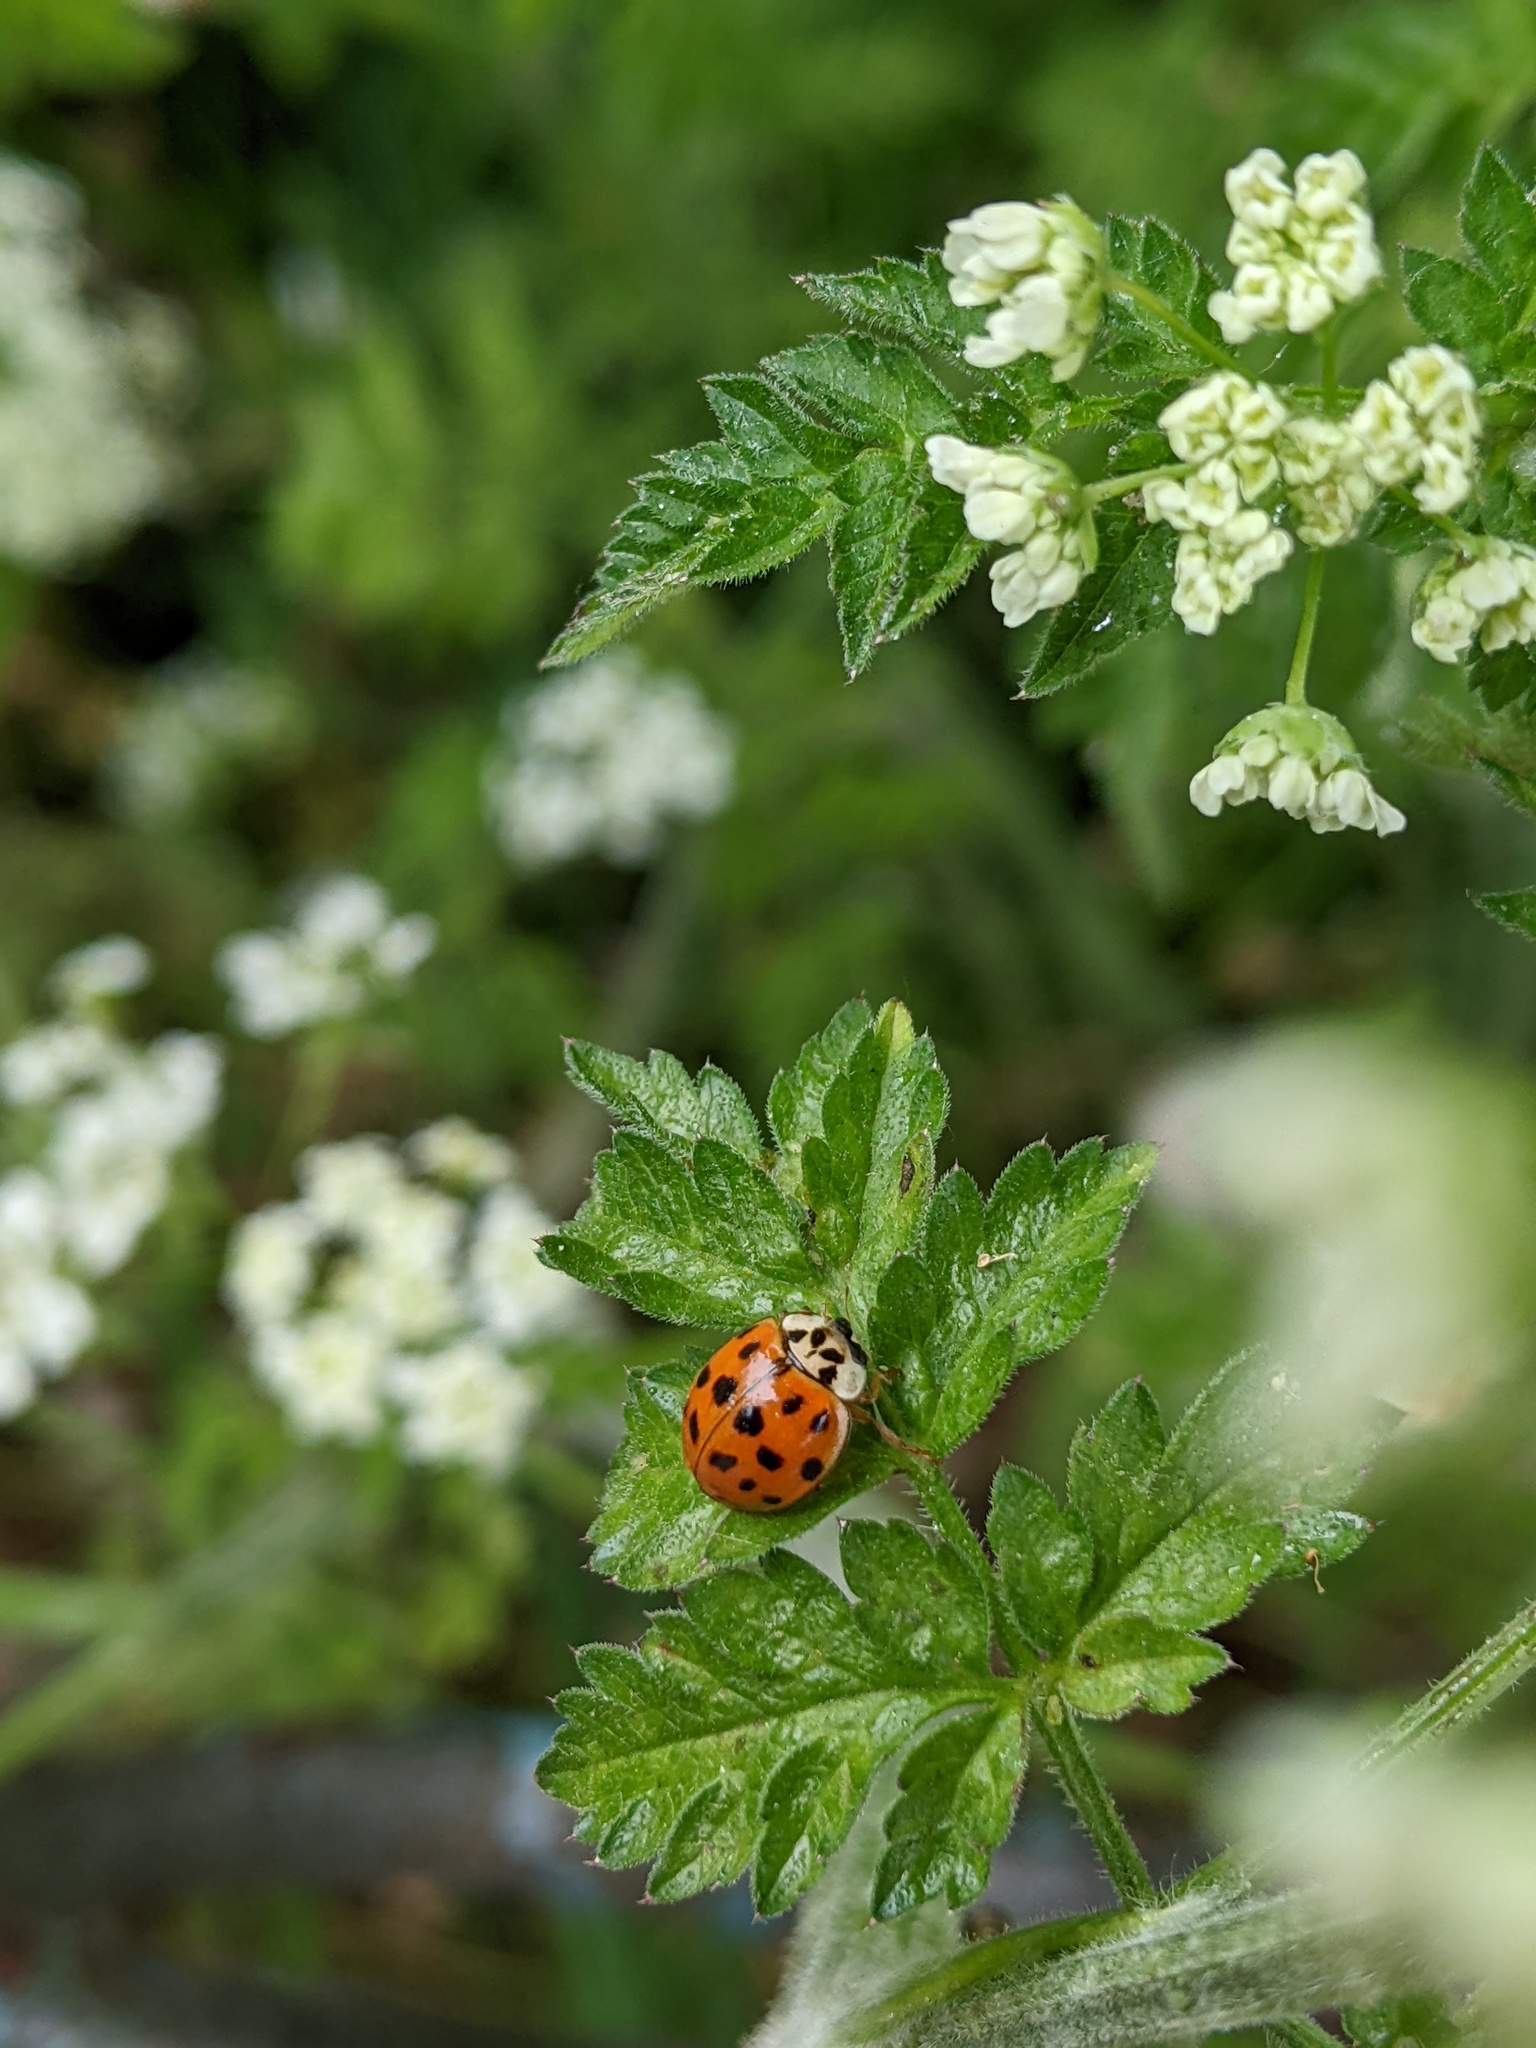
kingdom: Animalia
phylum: Arthropoda
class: Insecta
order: Coleoptera
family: Coccinellidae
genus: Harmonia
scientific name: Harmonia axyridis
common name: Harlequin ladybird
